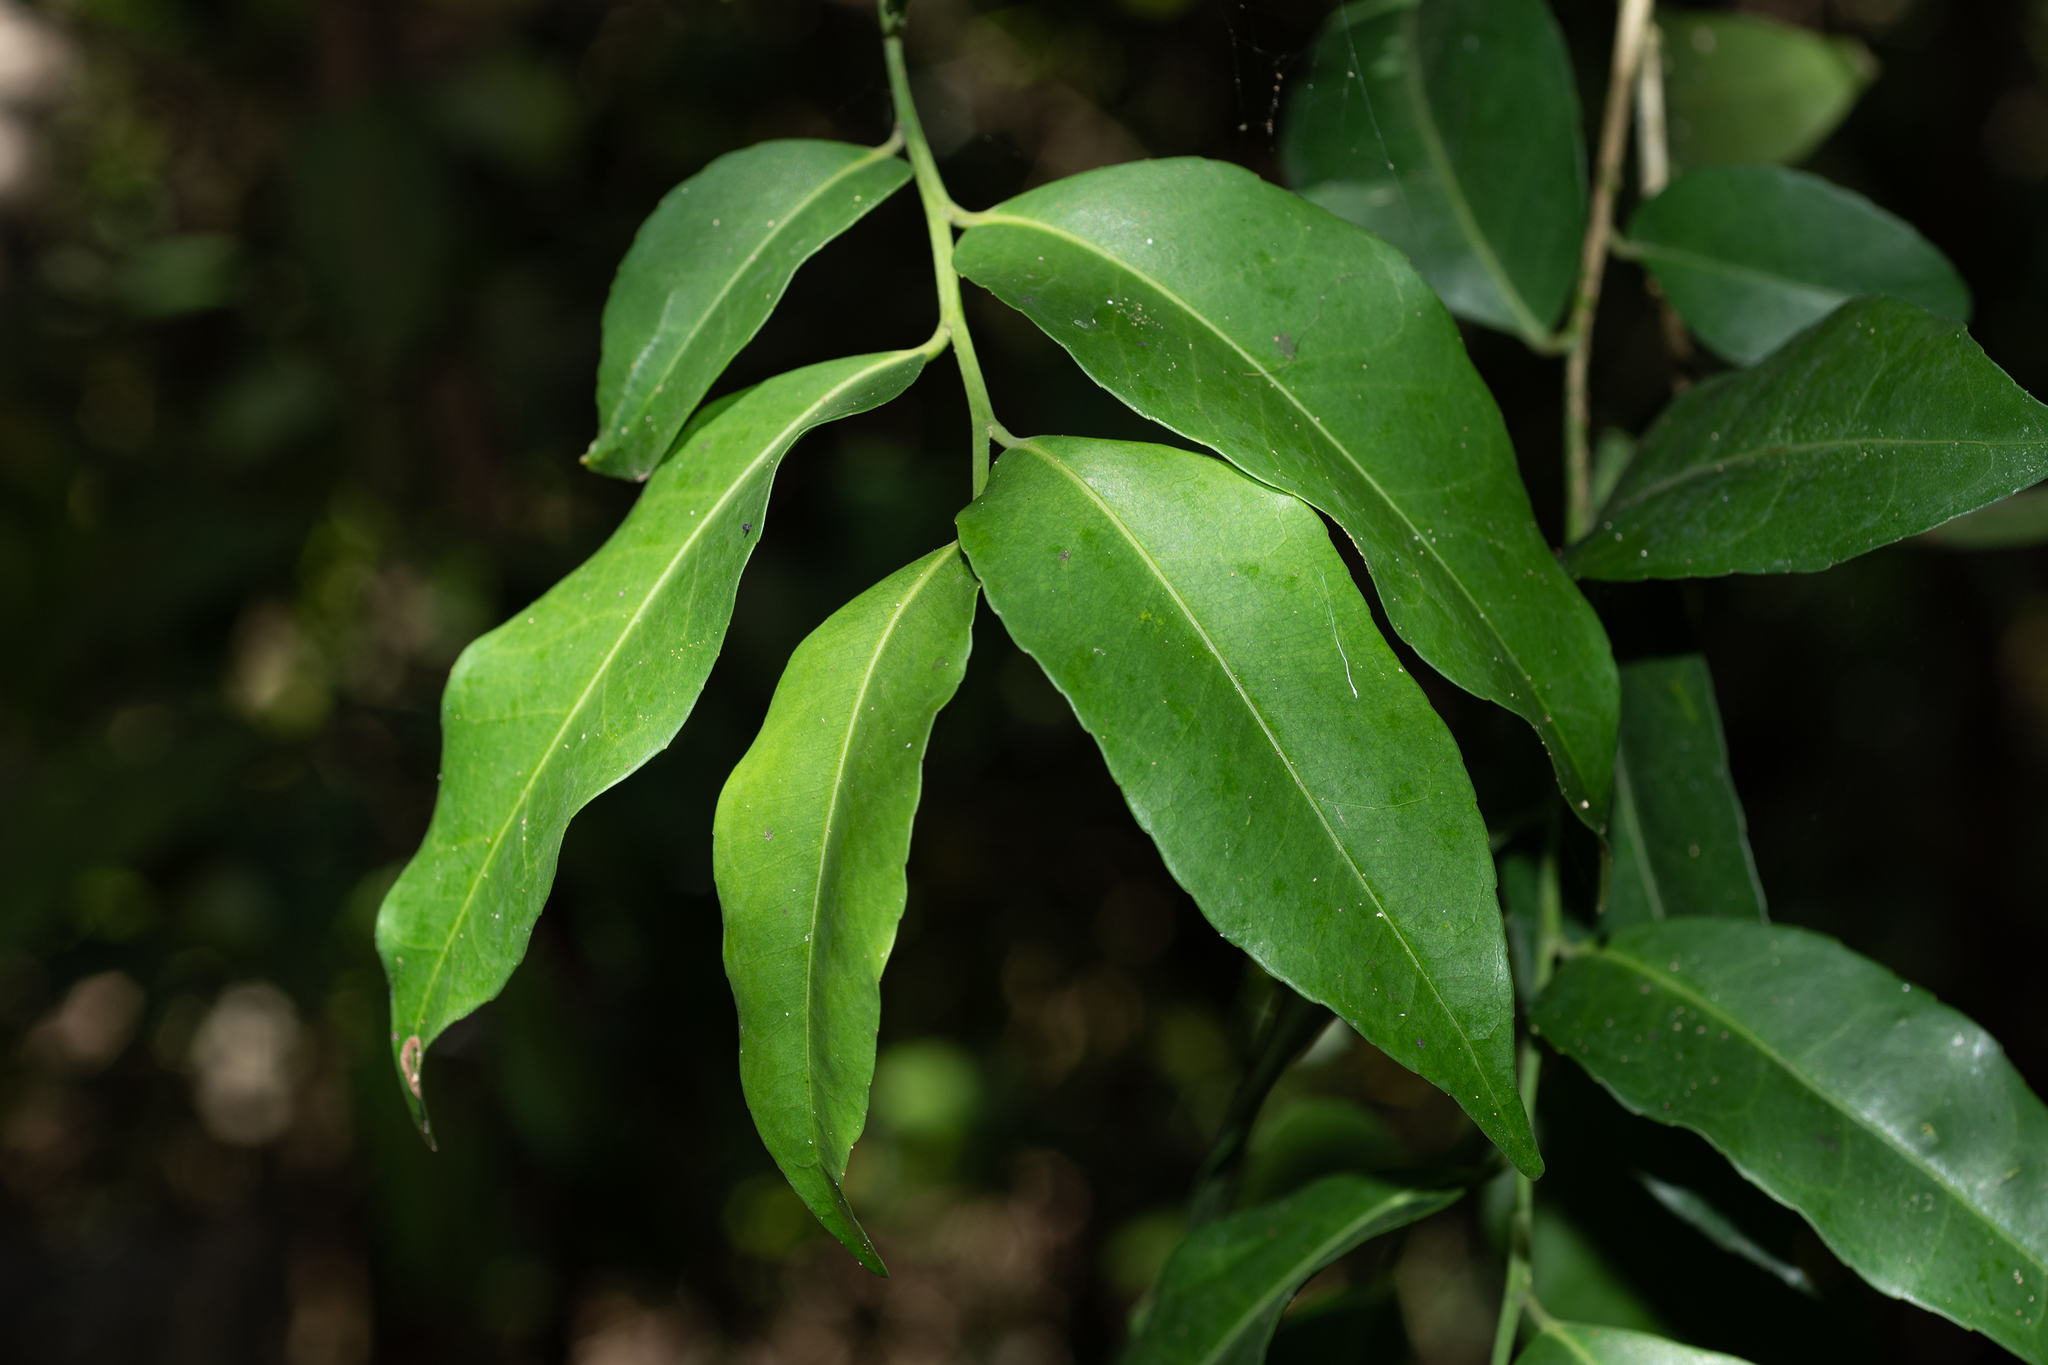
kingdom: Plantae
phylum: Tracheophyta
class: Magnoliopsida
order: Malpighiales
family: Putranjivaceae
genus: Putranjiva
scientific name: Putranjiva formosana
